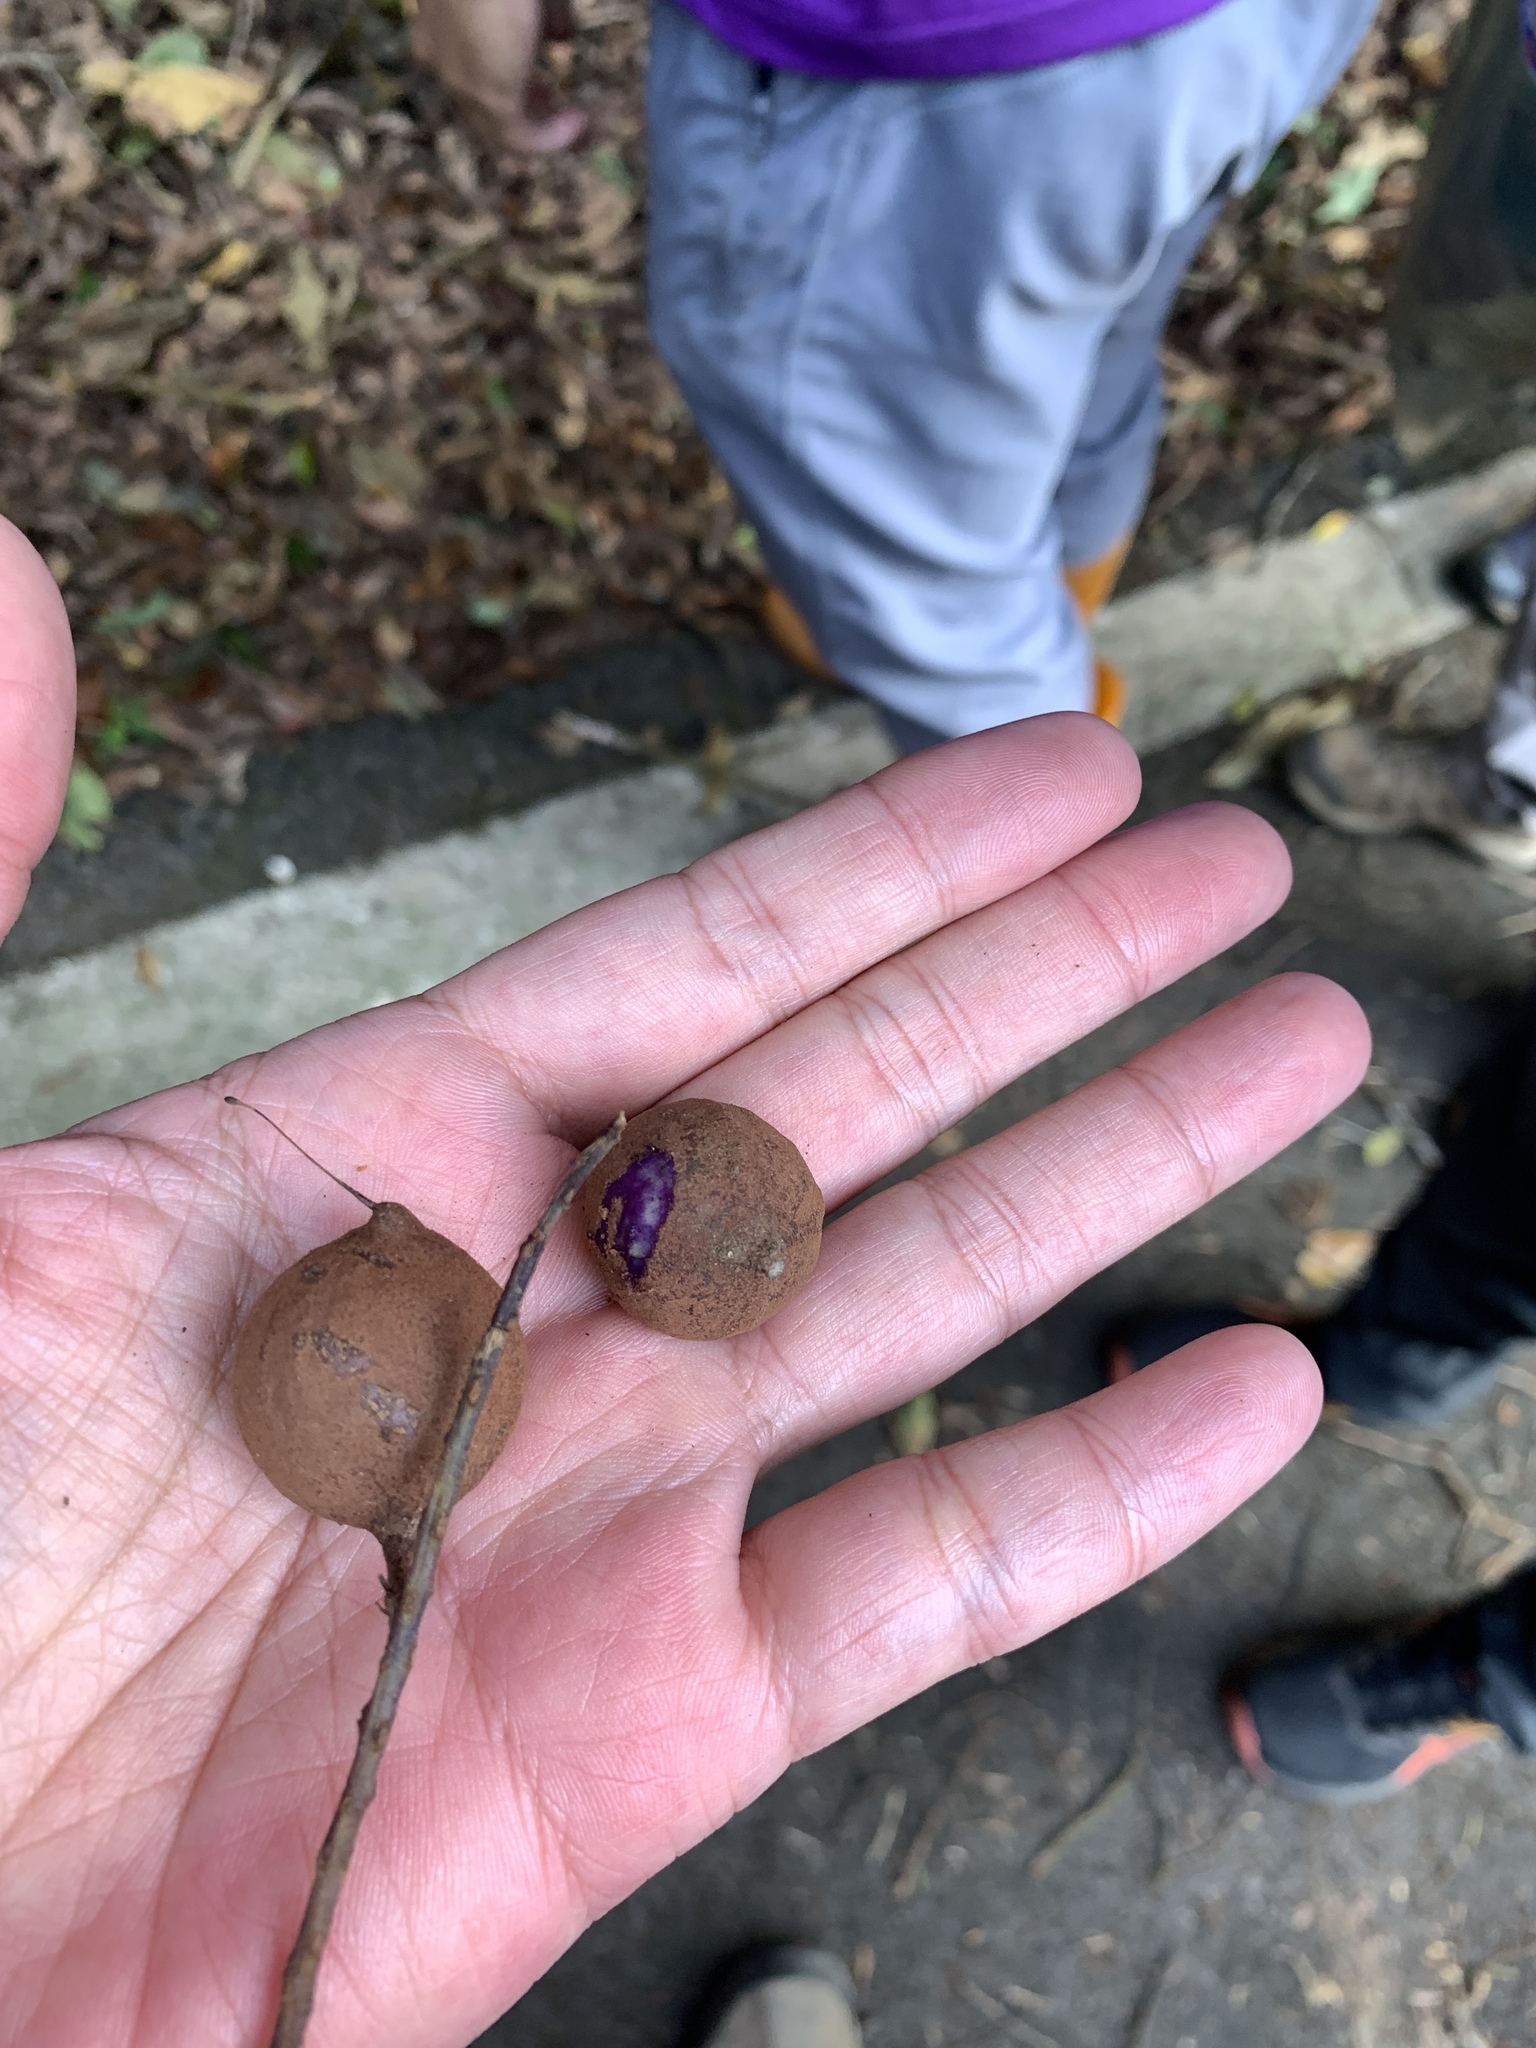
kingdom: Plantae
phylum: Tracheophyta
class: Magnoliopsida
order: Proteales
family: Proteaceae
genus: Helicia
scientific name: Helicia formosana
